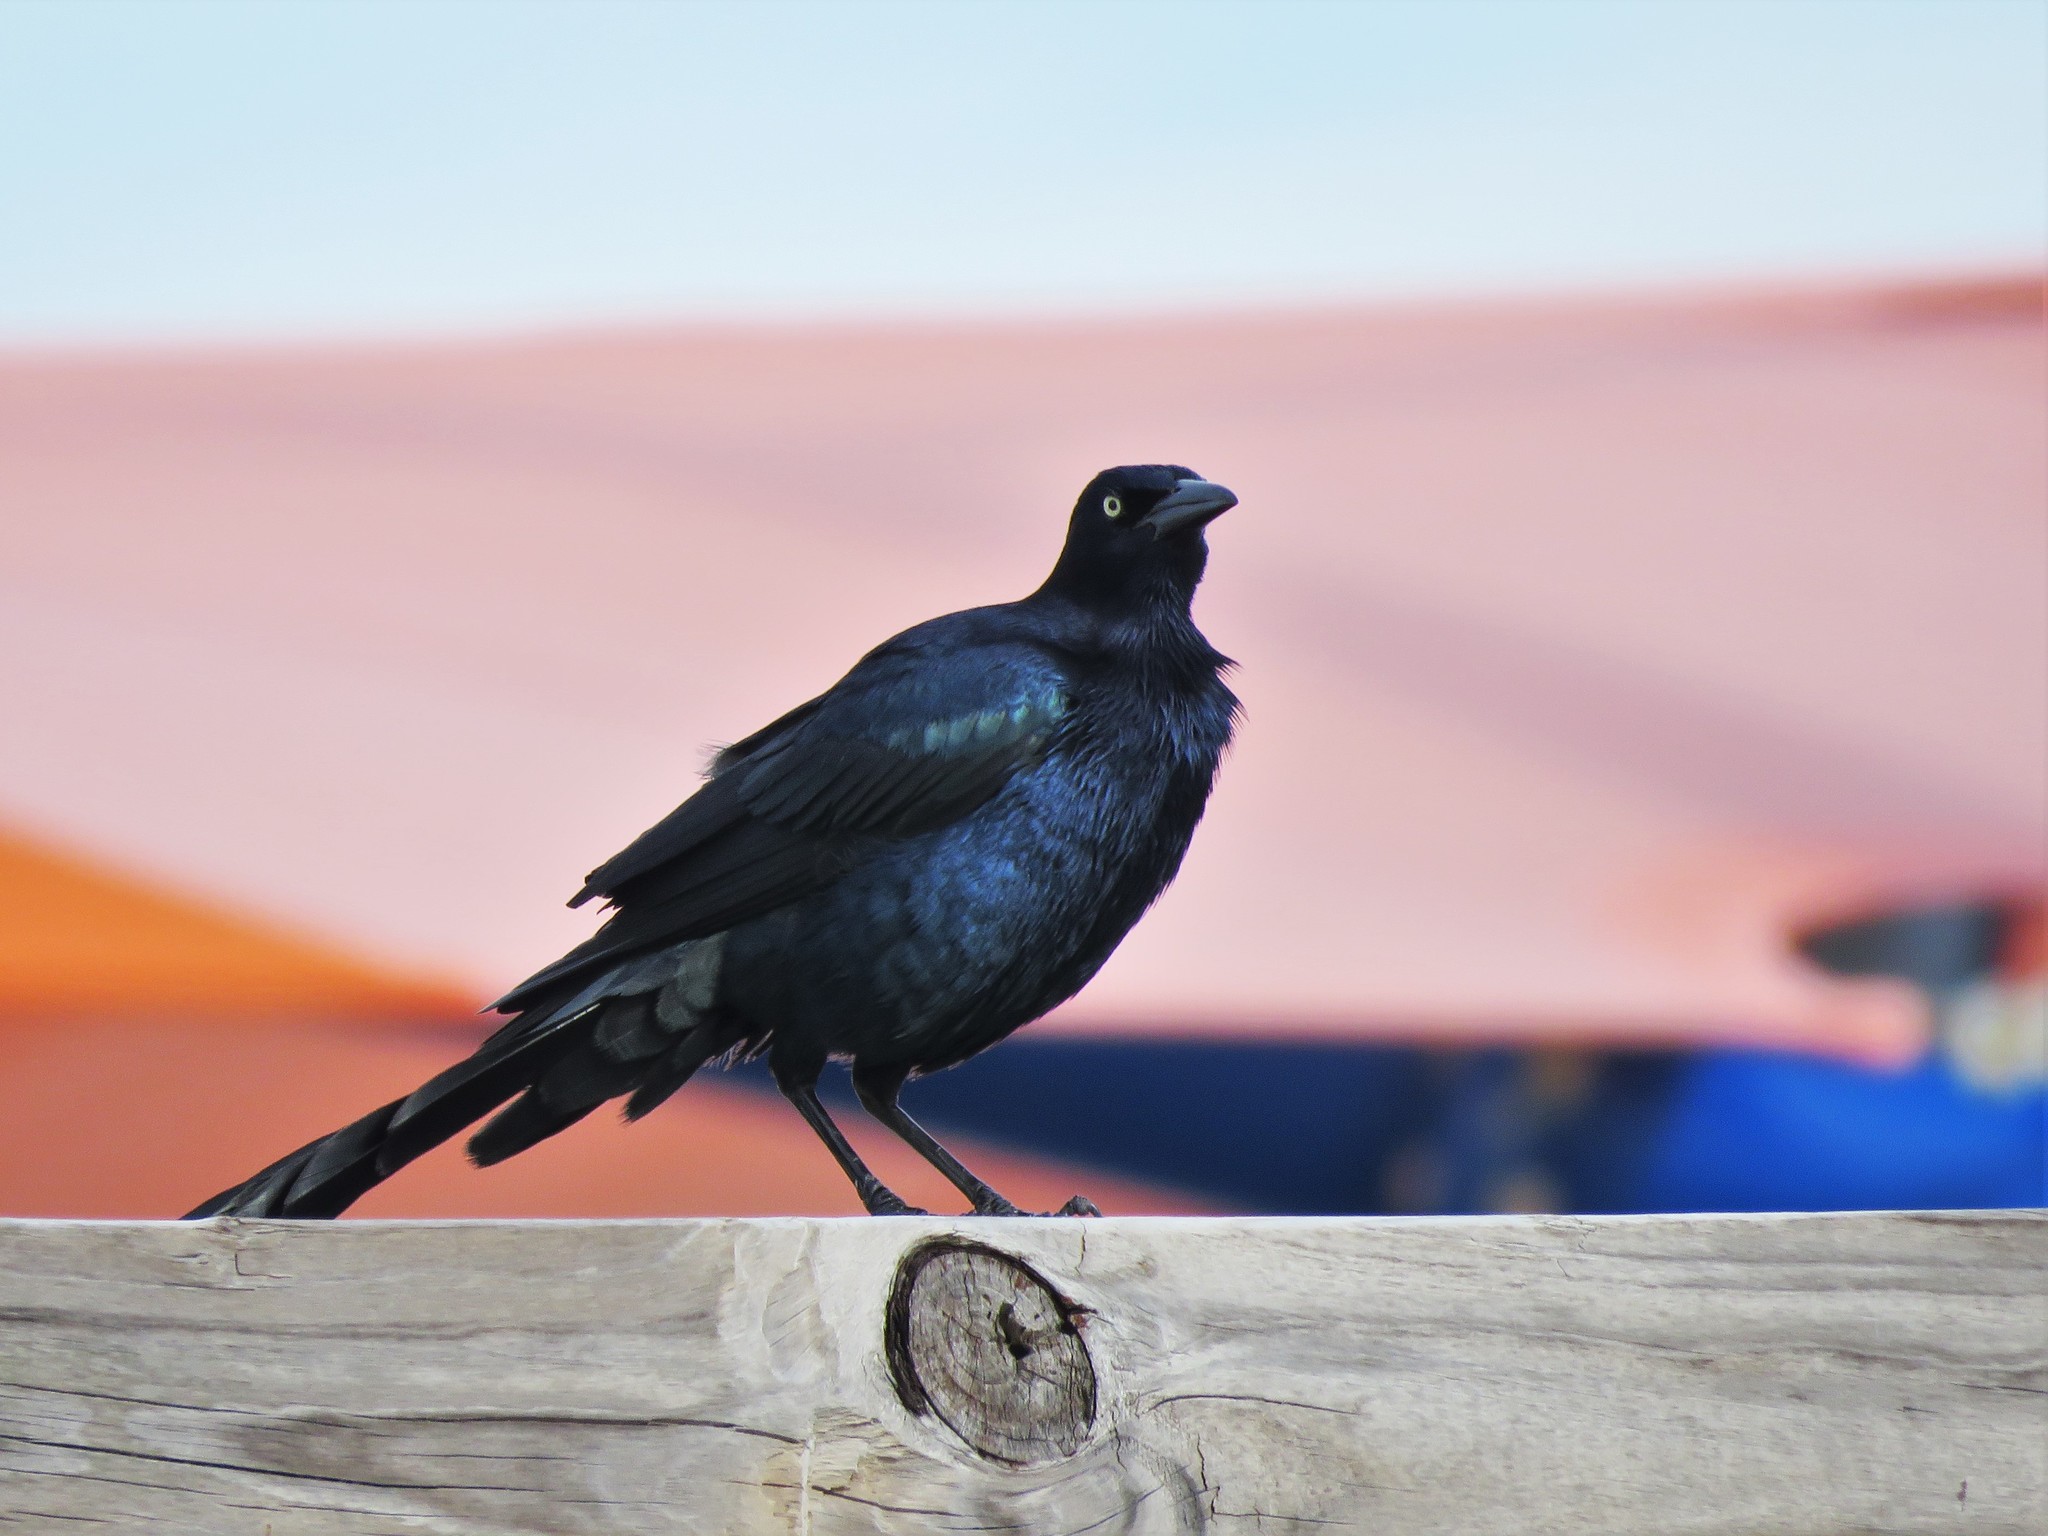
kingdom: Animalia
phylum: Chordata
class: Aves
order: Passeriformes
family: Icteridae
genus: Quiscalus
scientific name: Quiscalus mexicanus
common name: Great-tailed grackle
